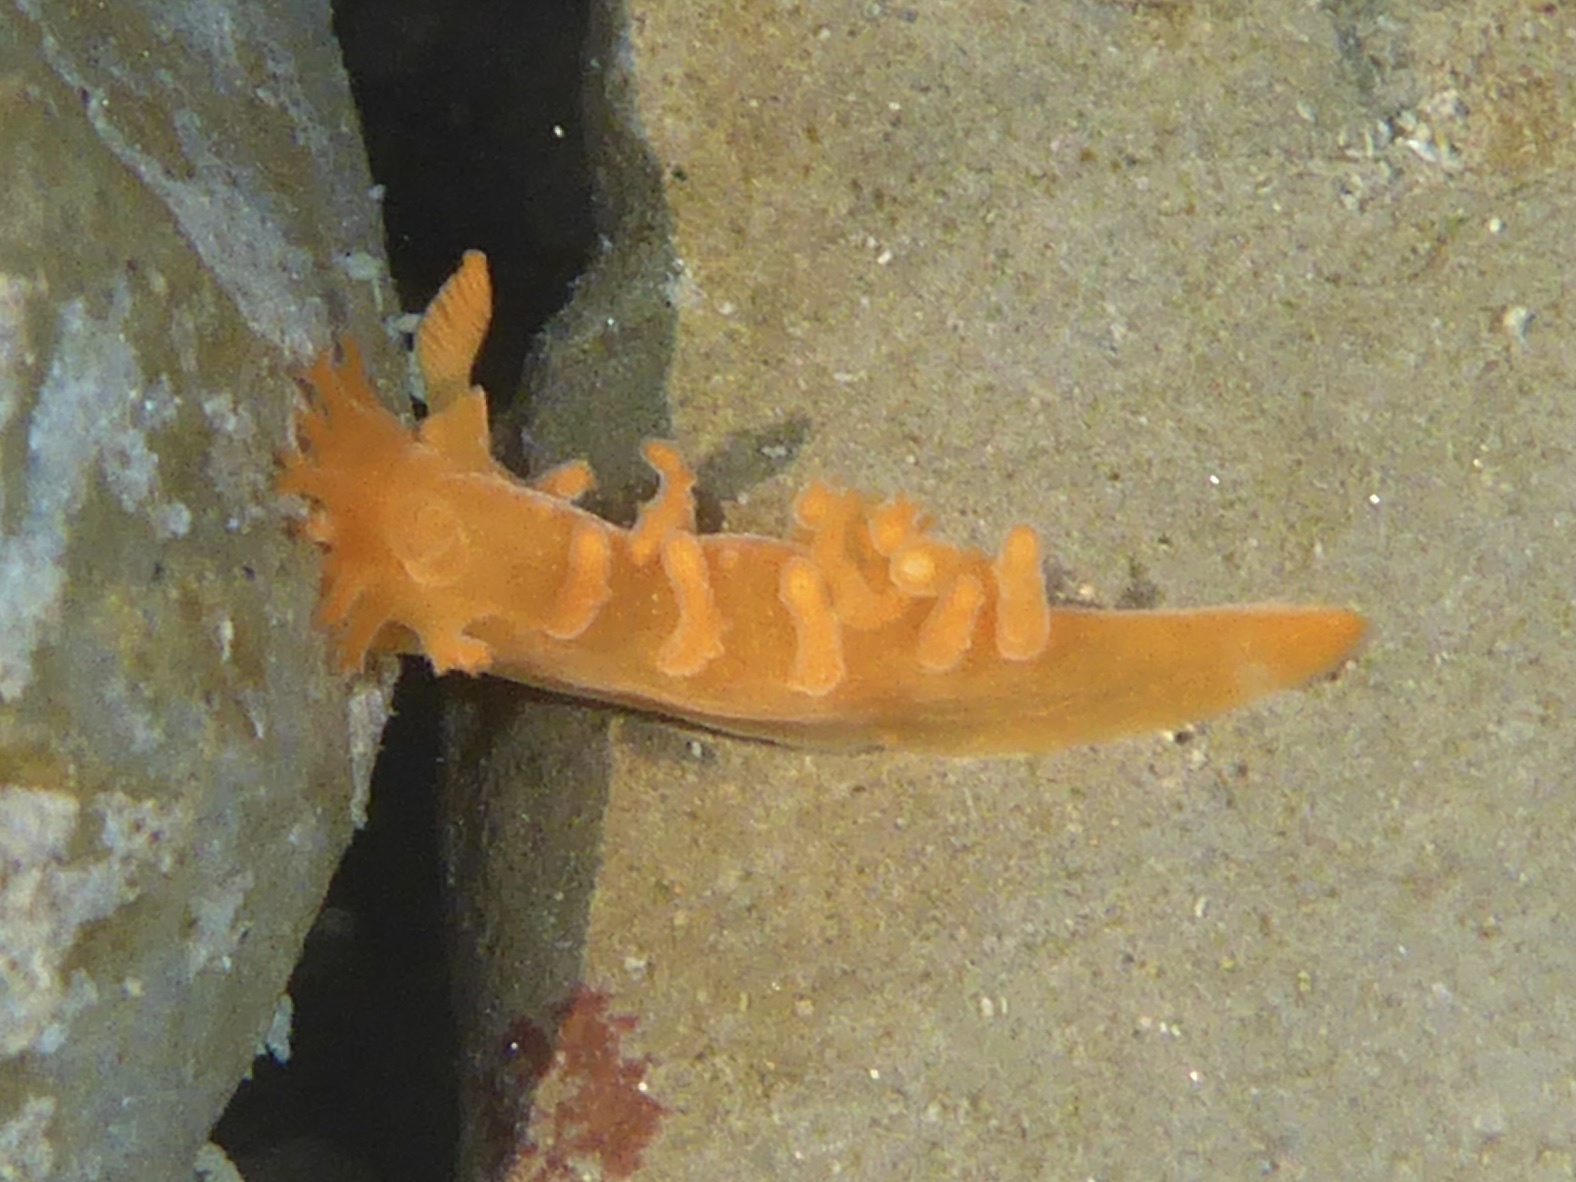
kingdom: Animalia
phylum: Mollusca
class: Gastropoda
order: Nudibranchia
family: Polyceridae
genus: Triopha
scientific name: Triopha maculata
